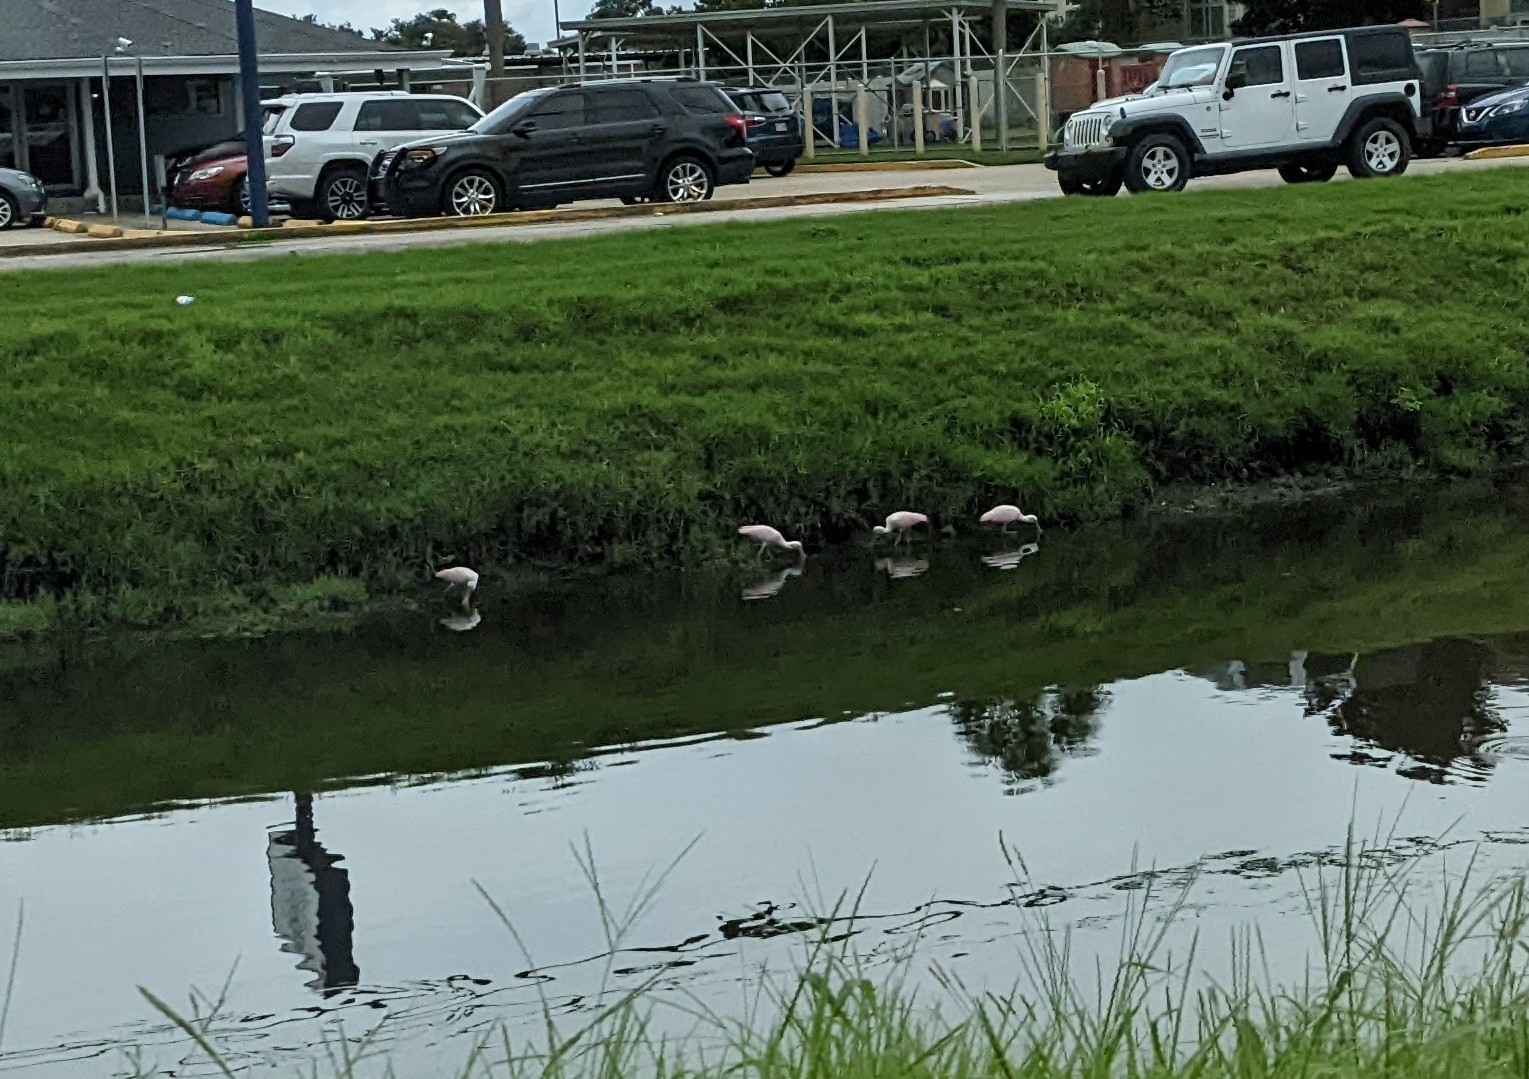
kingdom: Animalia
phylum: Chordata
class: Aves
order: Pelecaniformes
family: Threskiornithidae
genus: Platalea
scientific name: Platalea ajaja
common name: Roseate spoonbill
